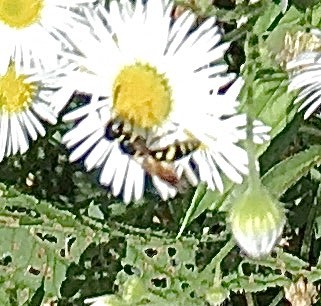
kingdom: Animalia
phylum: Arthropoda
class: Insecta
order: Hymenoptera
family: Crabronidae
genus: Philanthus
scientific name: Philanthus lepidus
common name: Pleasant beewolf
